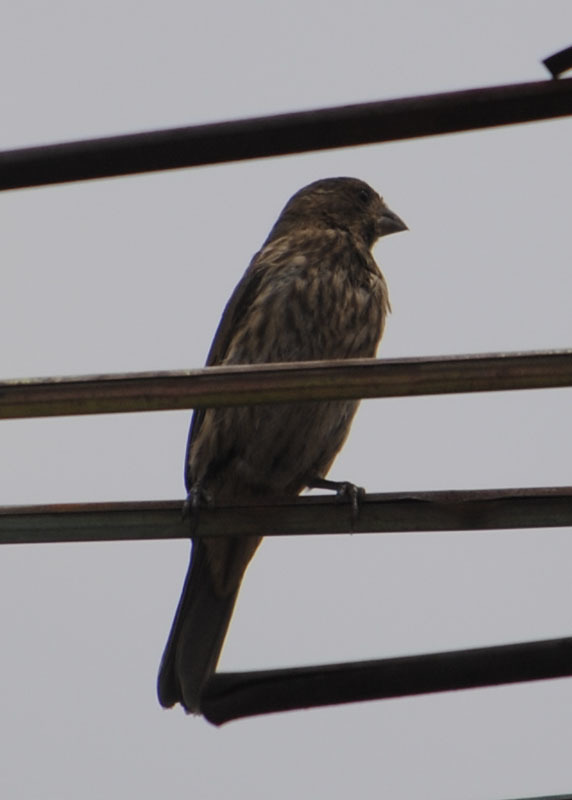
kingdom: Animalia
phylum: Chordata
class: Aves
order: Passeriformes
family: Fringillidae
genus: Haemorhous
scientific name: Haemorhous mexicanus
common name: House finch
